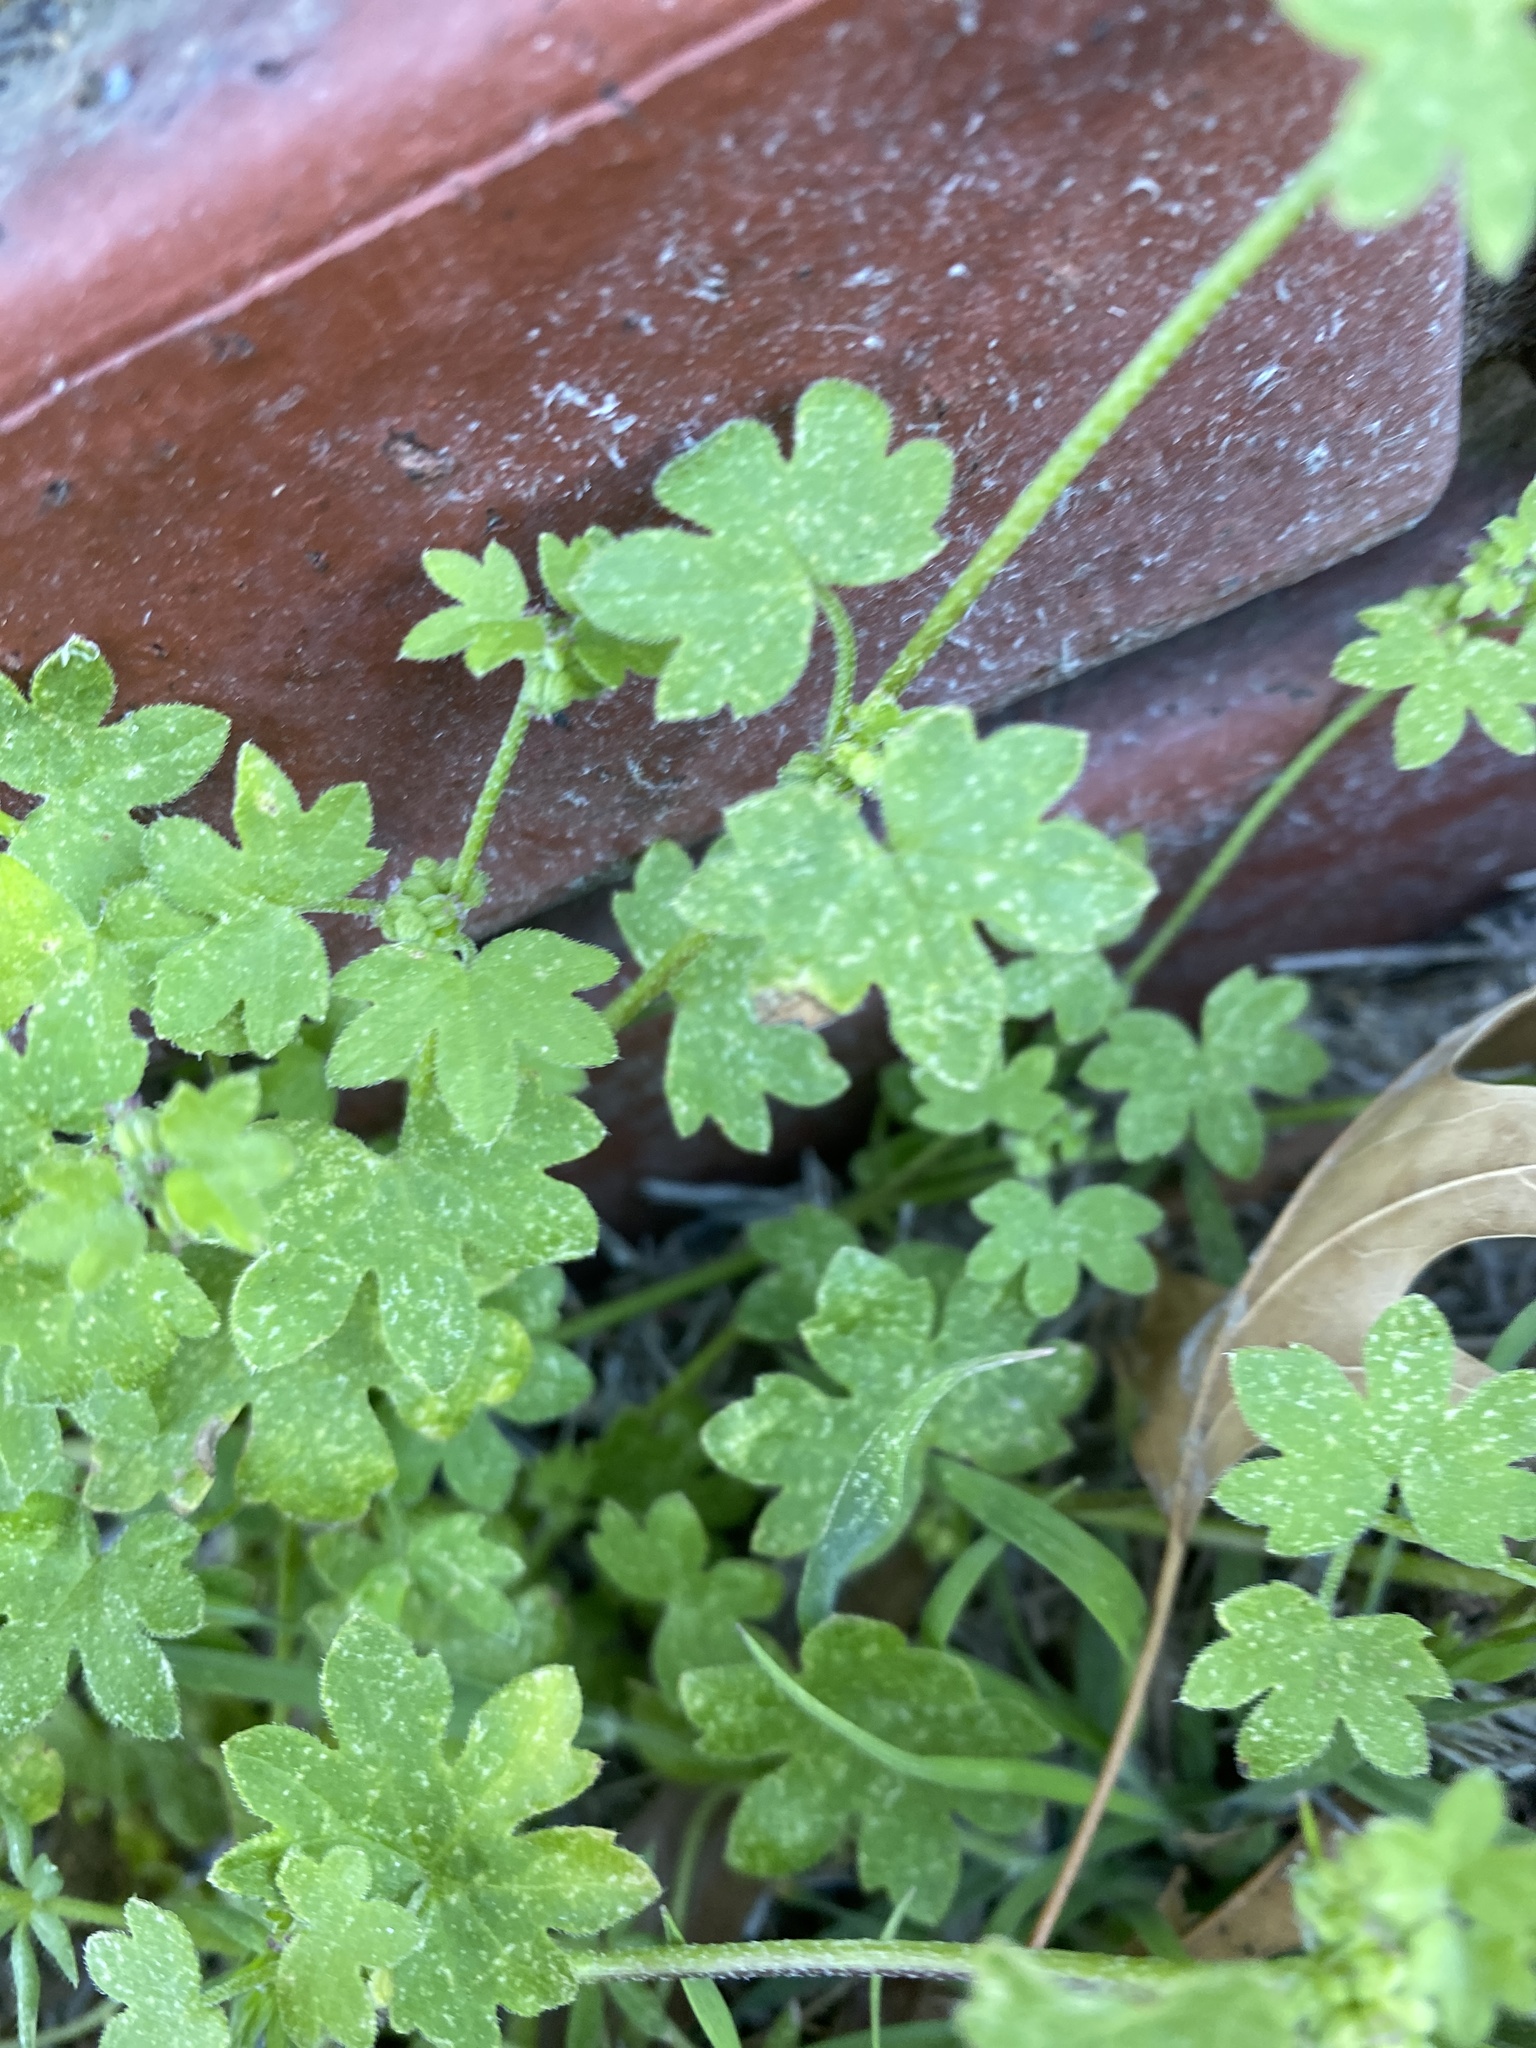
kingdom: Plantae
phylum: Tracheophyta
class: Magnoliopsida
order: Apiales
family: Apiaceae
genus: Bowlesia
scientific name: Bowlesia incana
